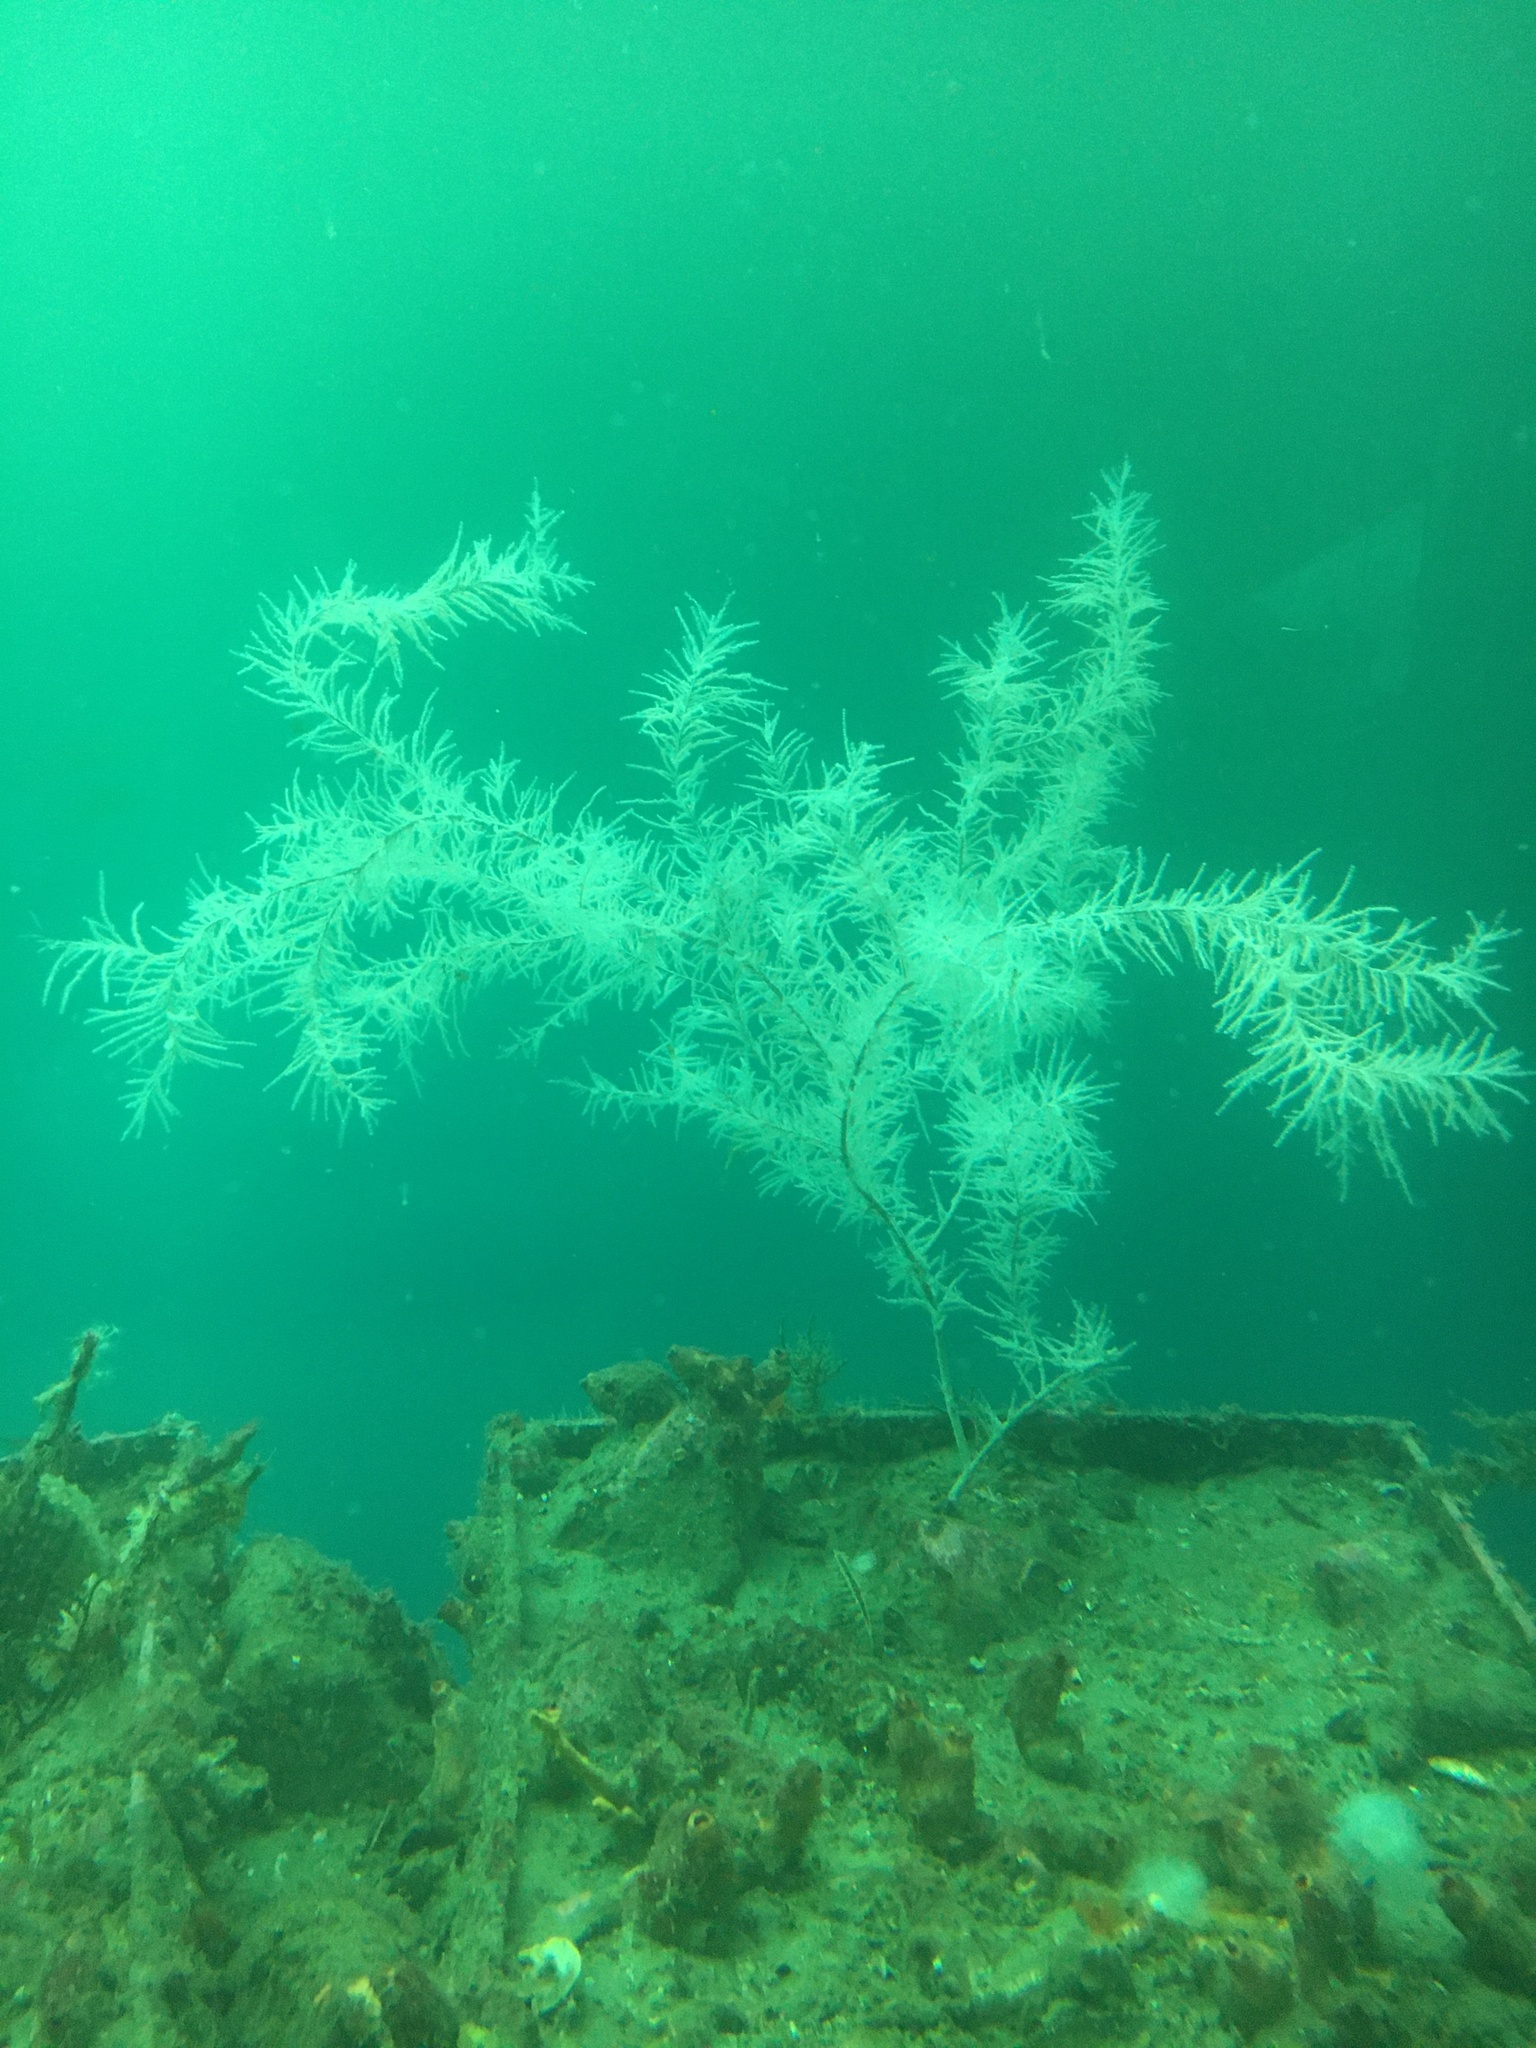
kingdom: Animalia
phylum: Cnidaria
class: Anthozoa
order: Antipatharia
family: Myriopathidae
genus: Antipathella
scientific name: Antipathella fiordensis
